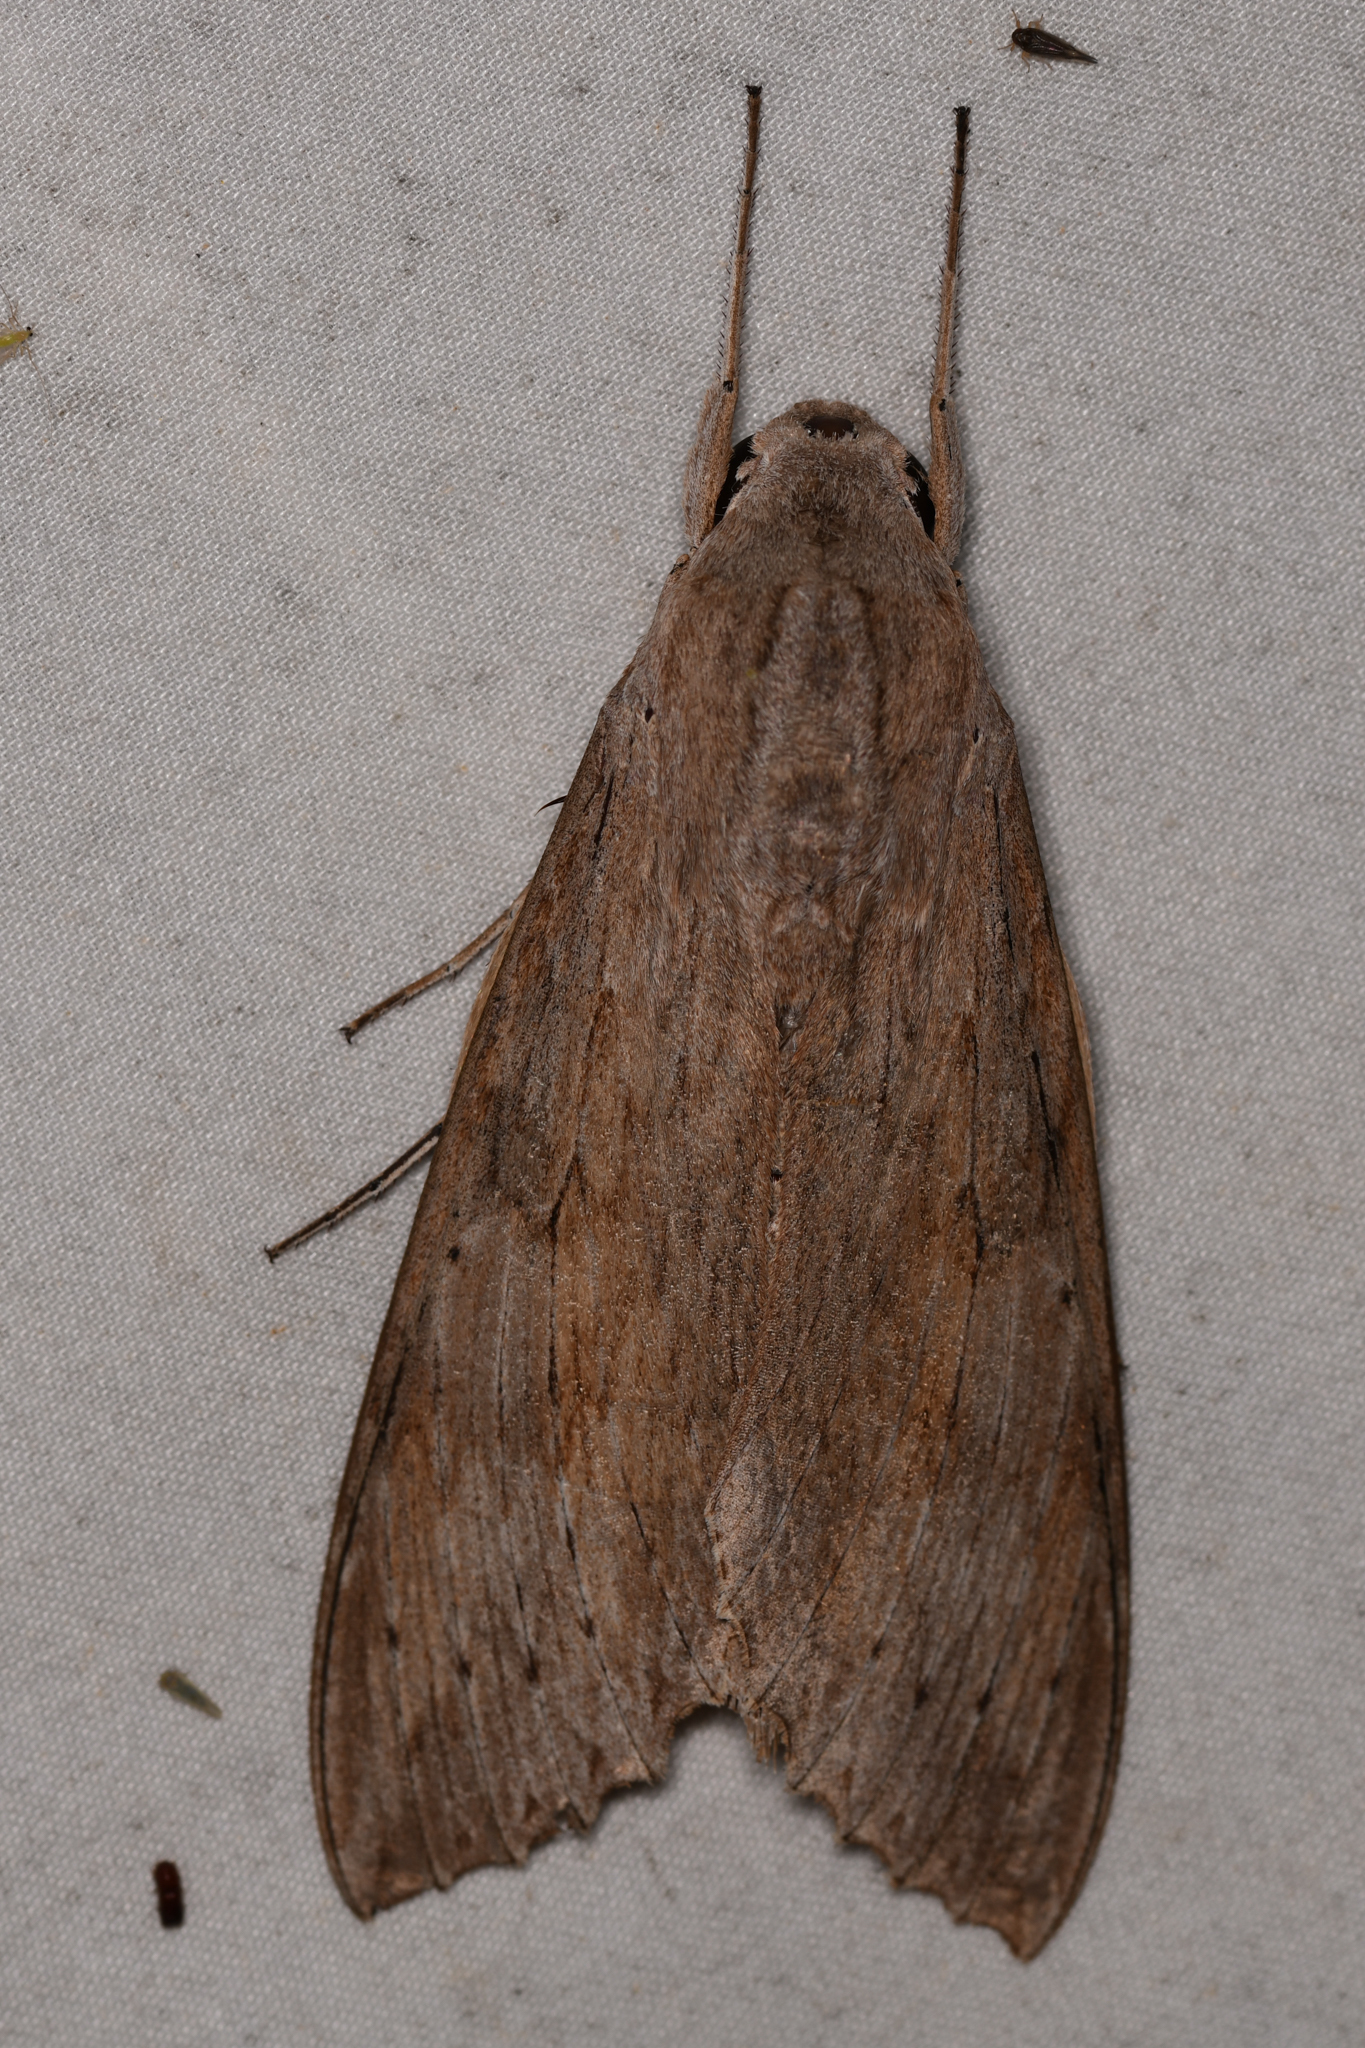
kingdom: Animalia
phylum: Arthropoda
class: Insecta
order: Lepidoptera
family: Sphingidae
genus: Erinnyis
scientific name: Erinnyis ello
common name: Ello sphinx
